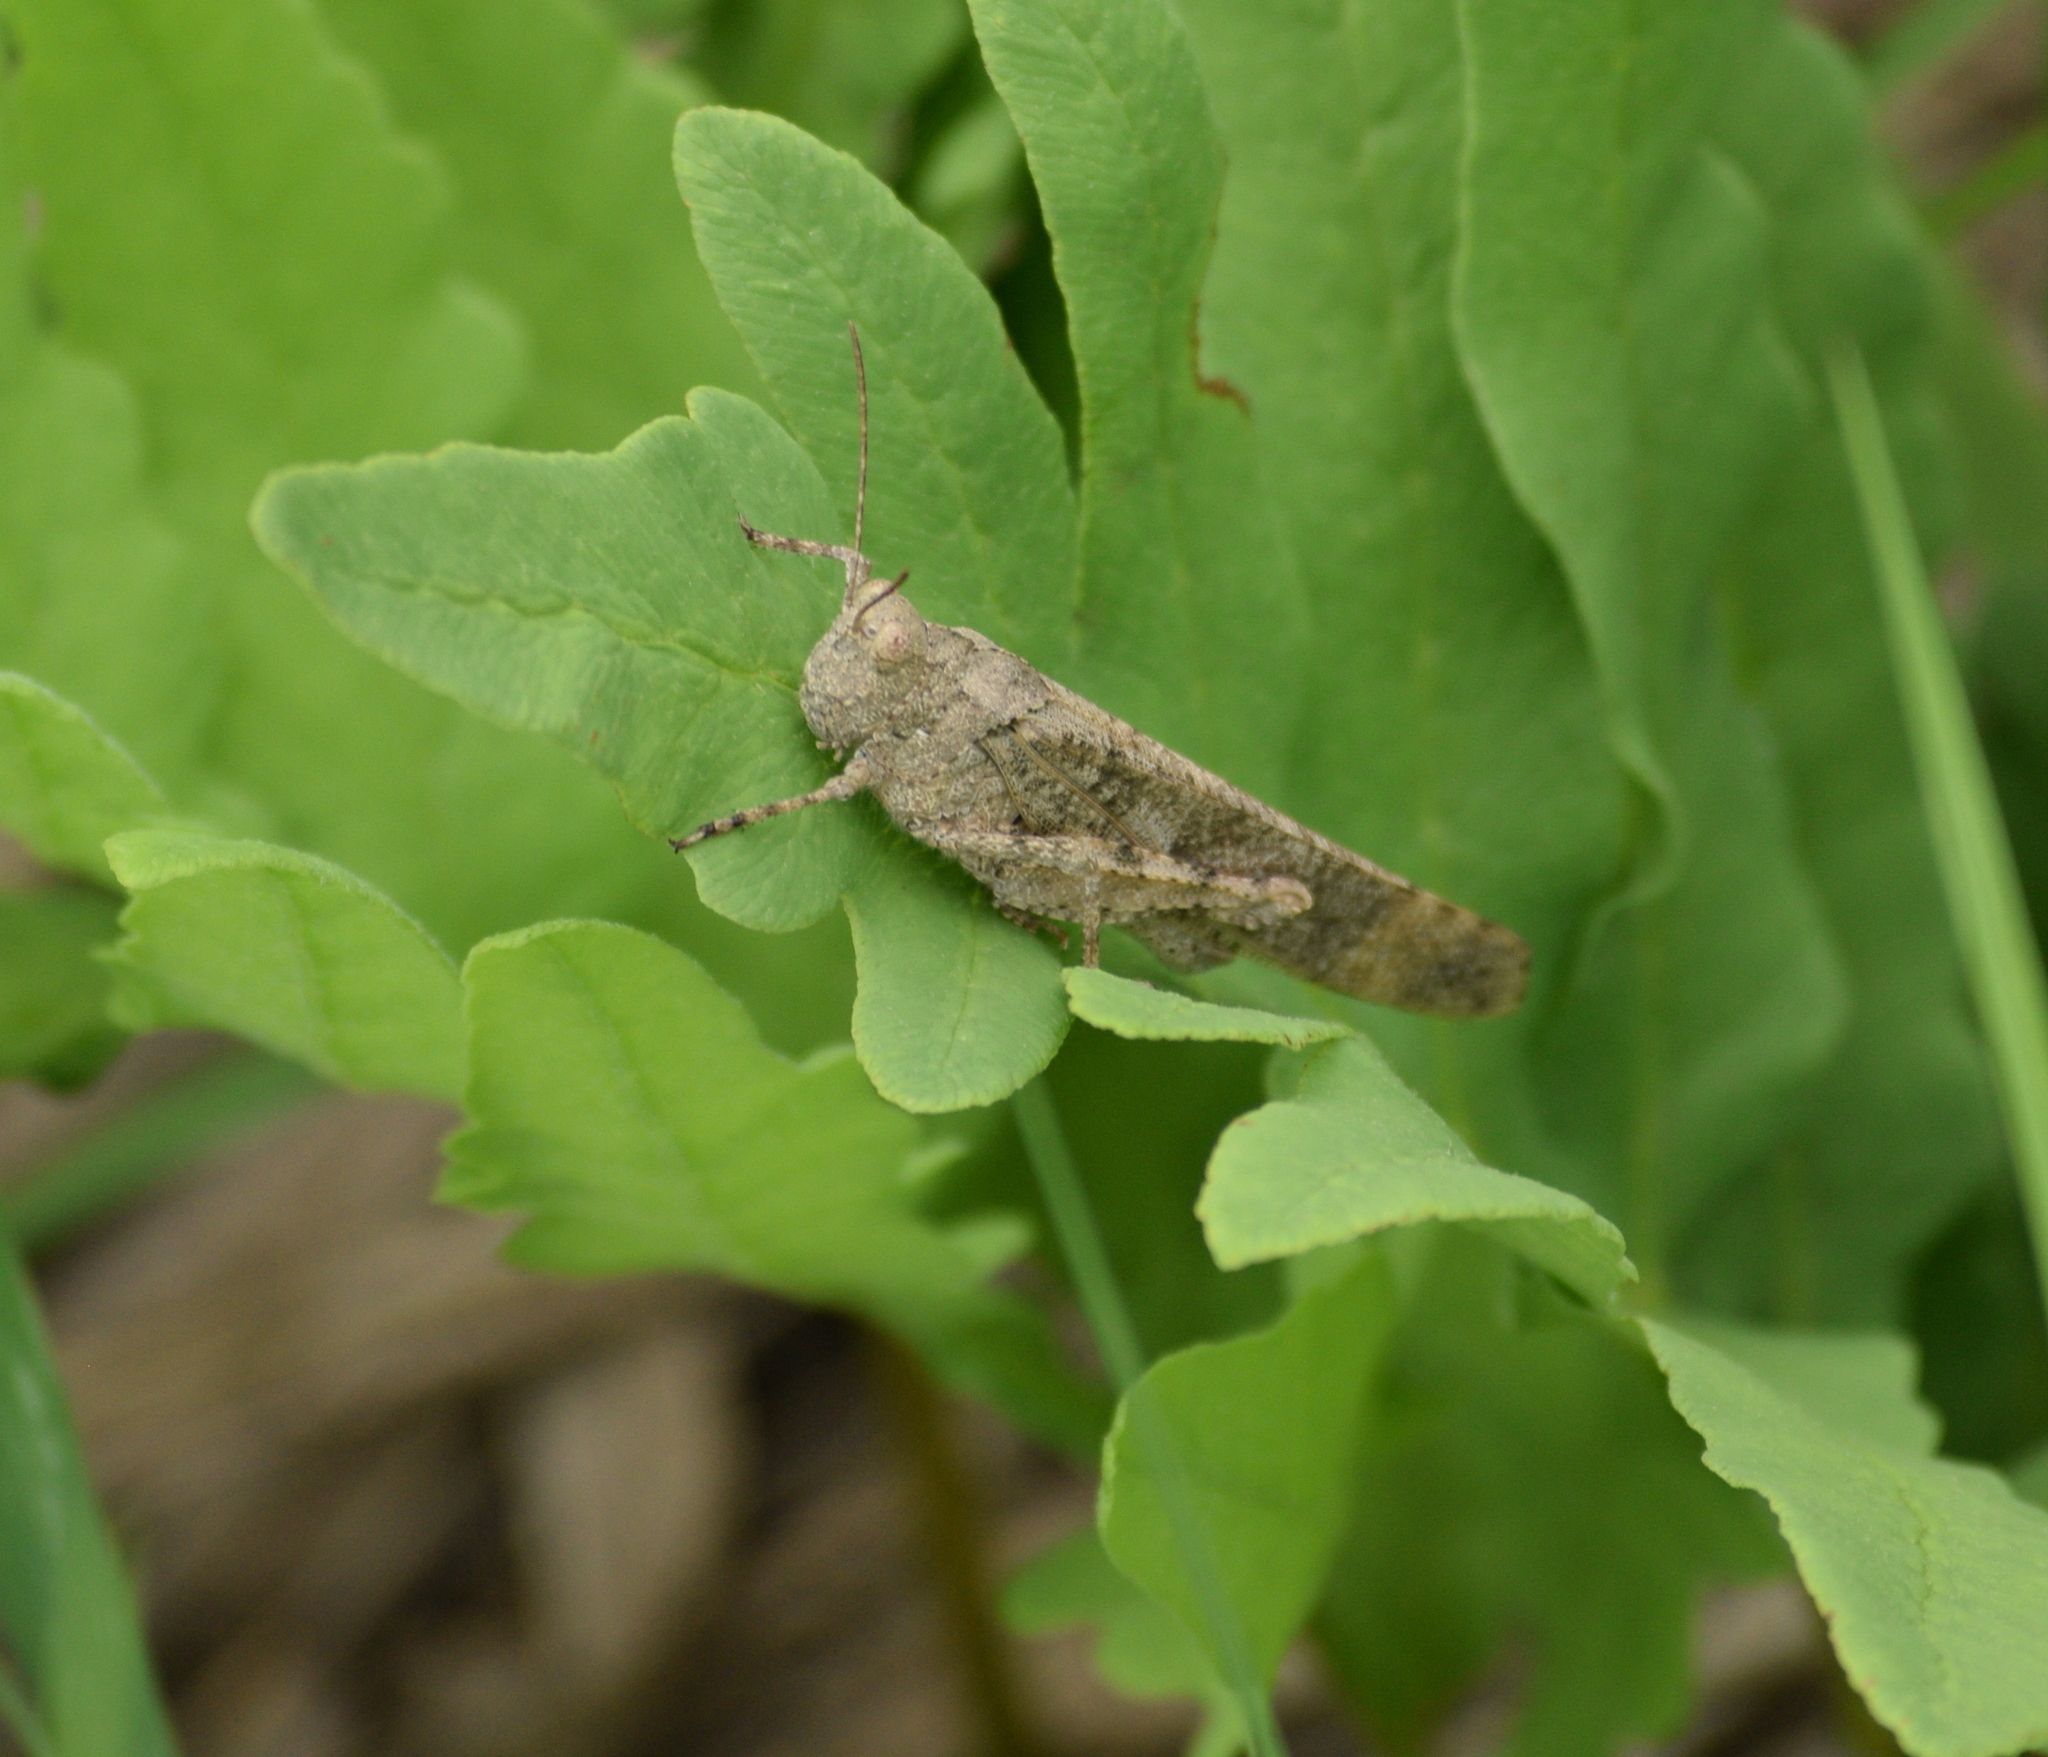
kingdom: Animalia
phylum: Arthropoda
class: Insecta
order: Orthoptera
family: Acrididae
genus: Dissosteira
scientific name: Dissosteira carolina
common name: Carolina grasshopper
